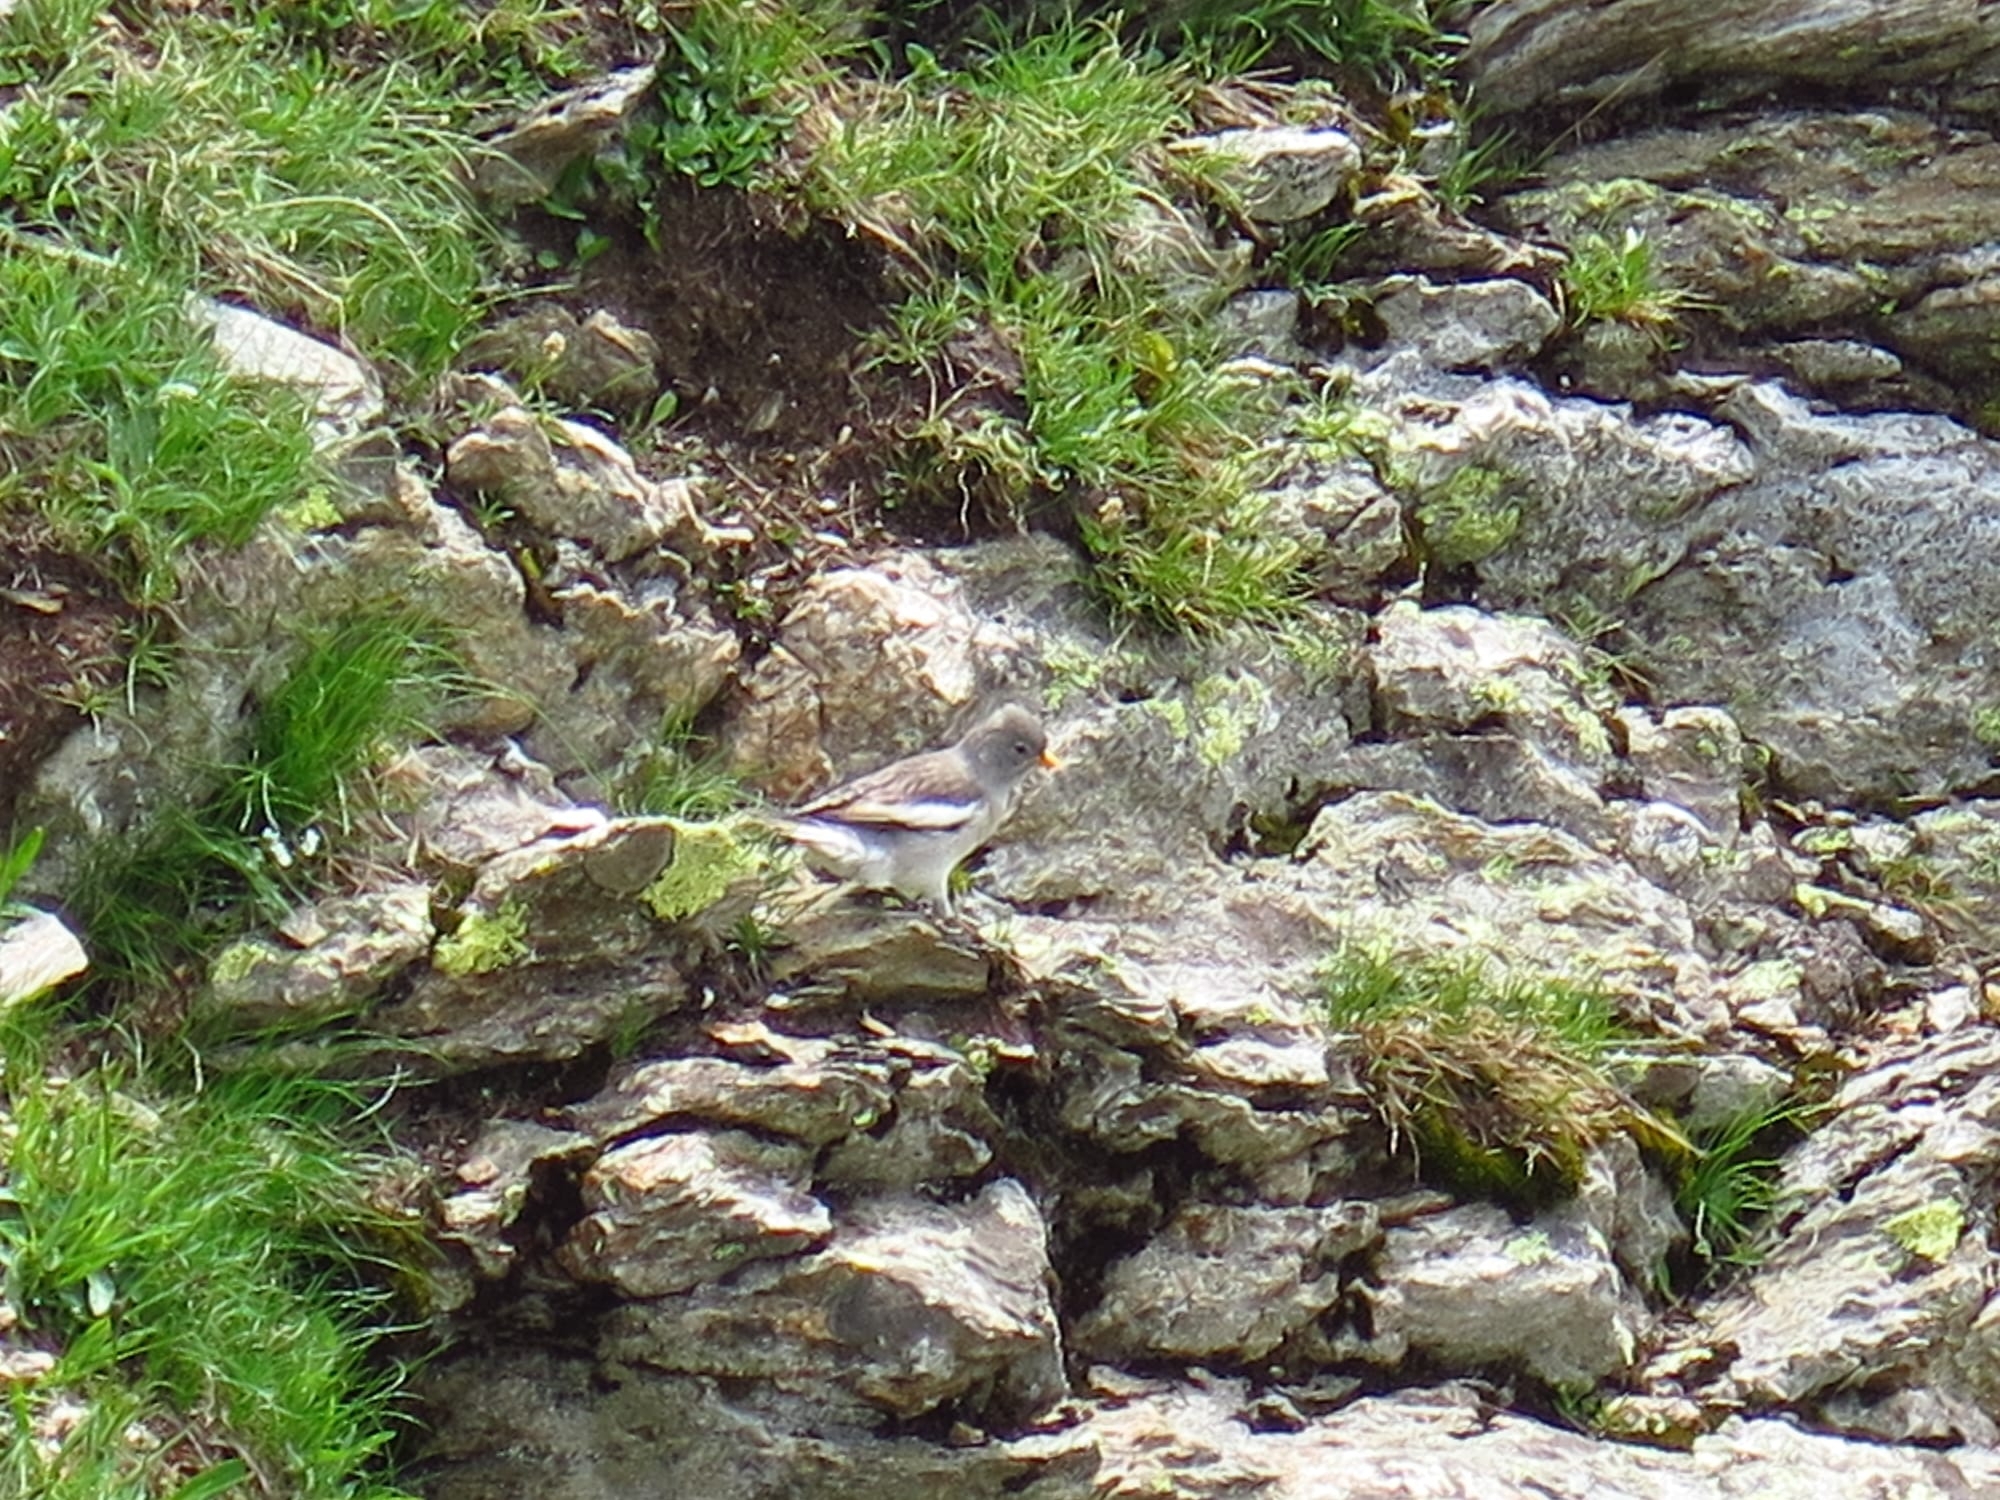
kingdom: Animalia
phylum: Chordata
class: Aves
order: Passeriformes
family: Passeridae
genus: Montifringilla
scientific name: Montifringilla nivalis
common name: White-winged snowfinch
